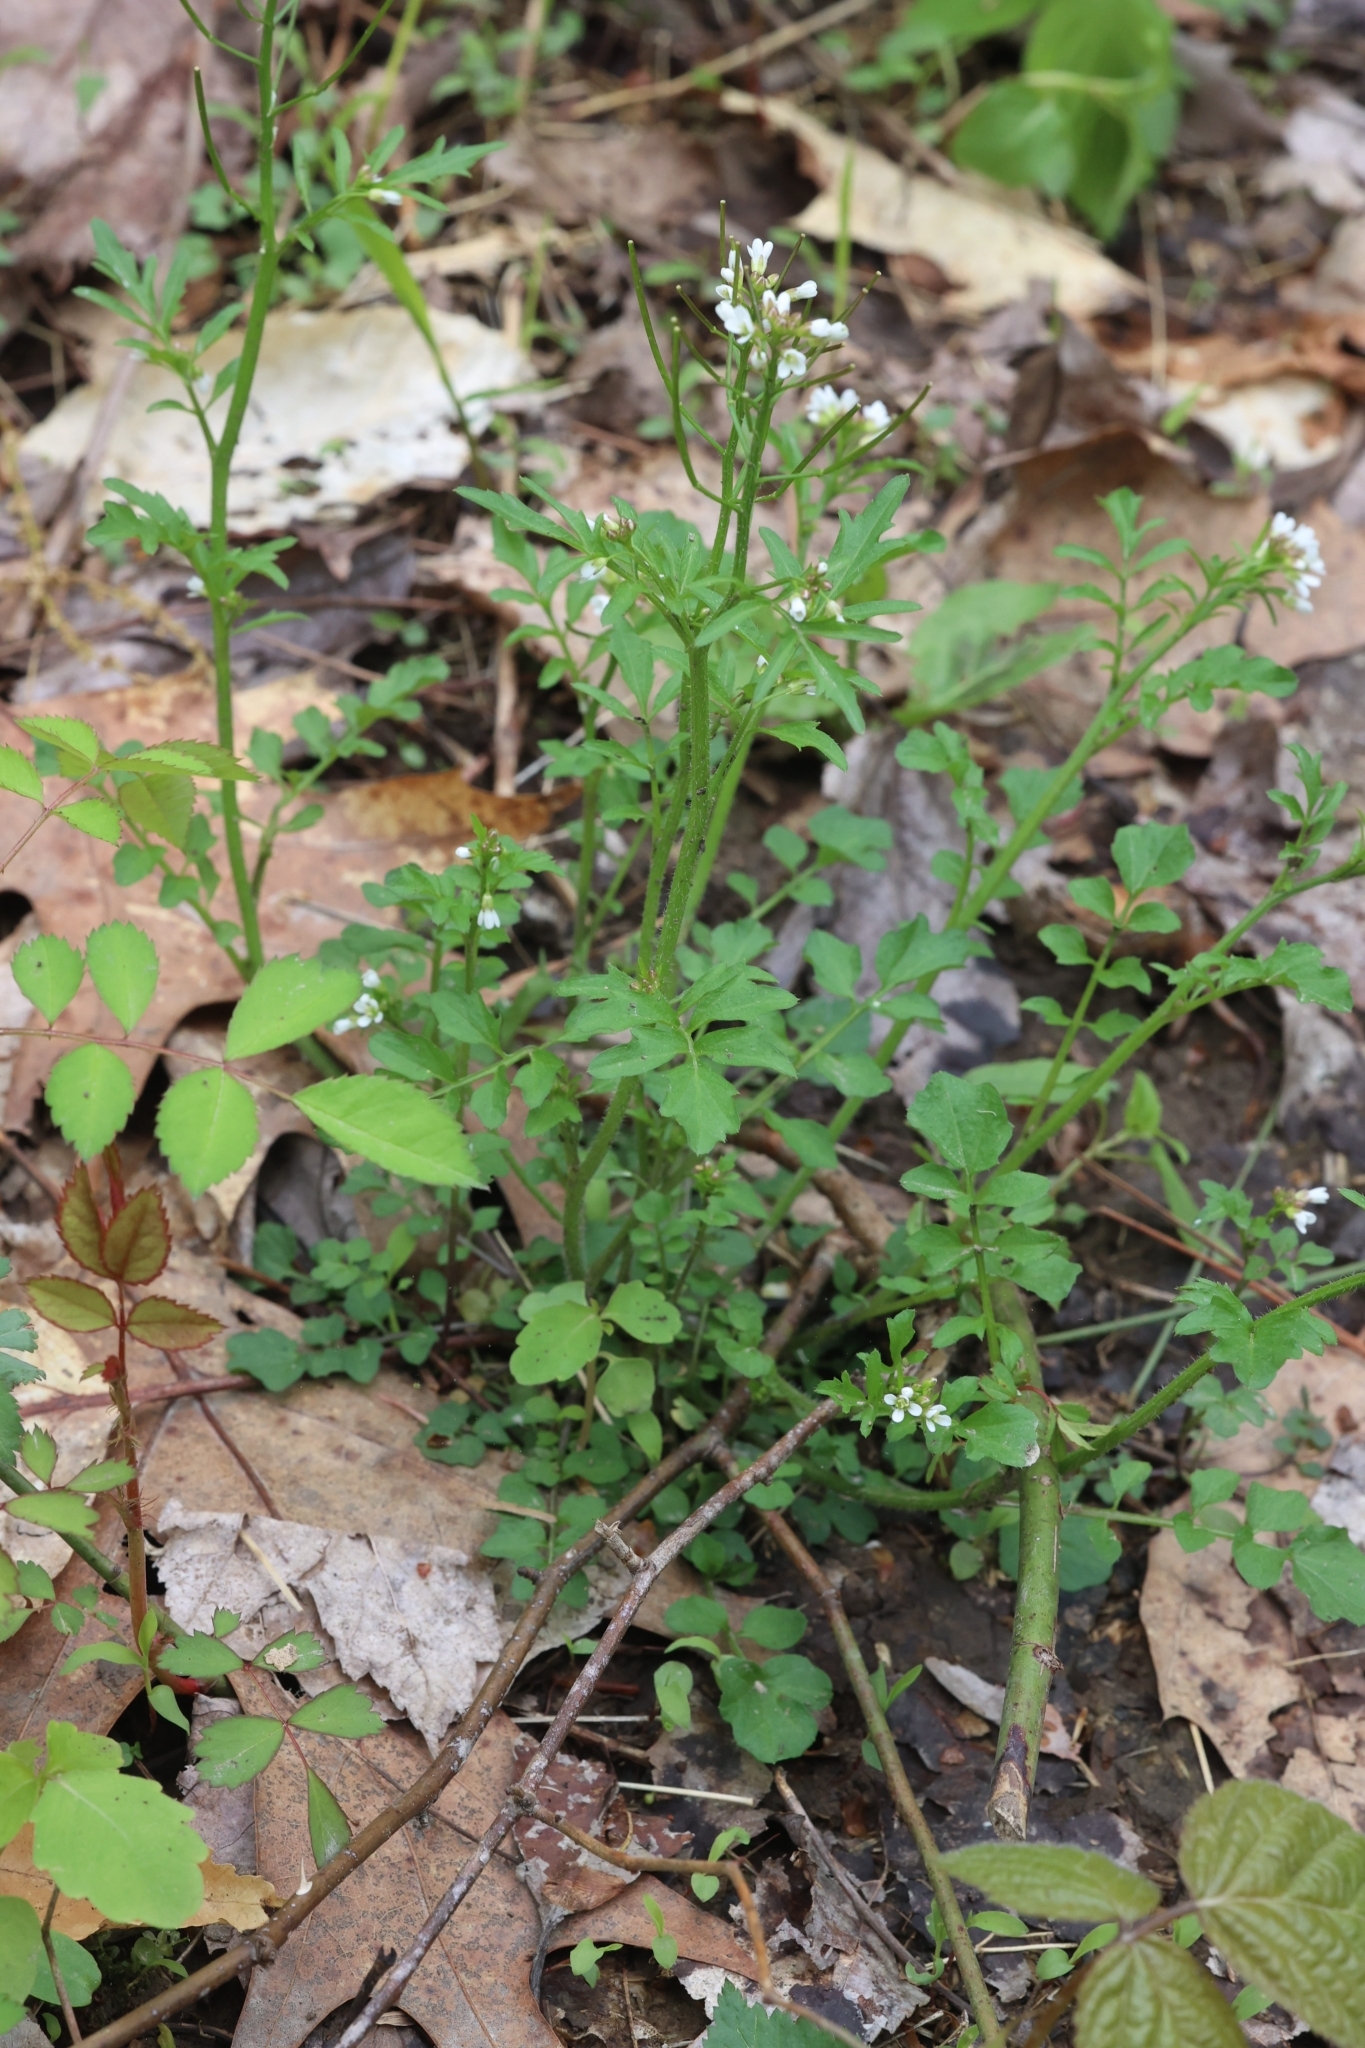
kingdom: Plantae
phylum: Tracheophyta
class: Magnoliopsida
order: Brassicales
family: Brassicaceae
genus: Cardamine
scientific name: Cardamine pensylvanica
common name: Pennsylvania bittercress
